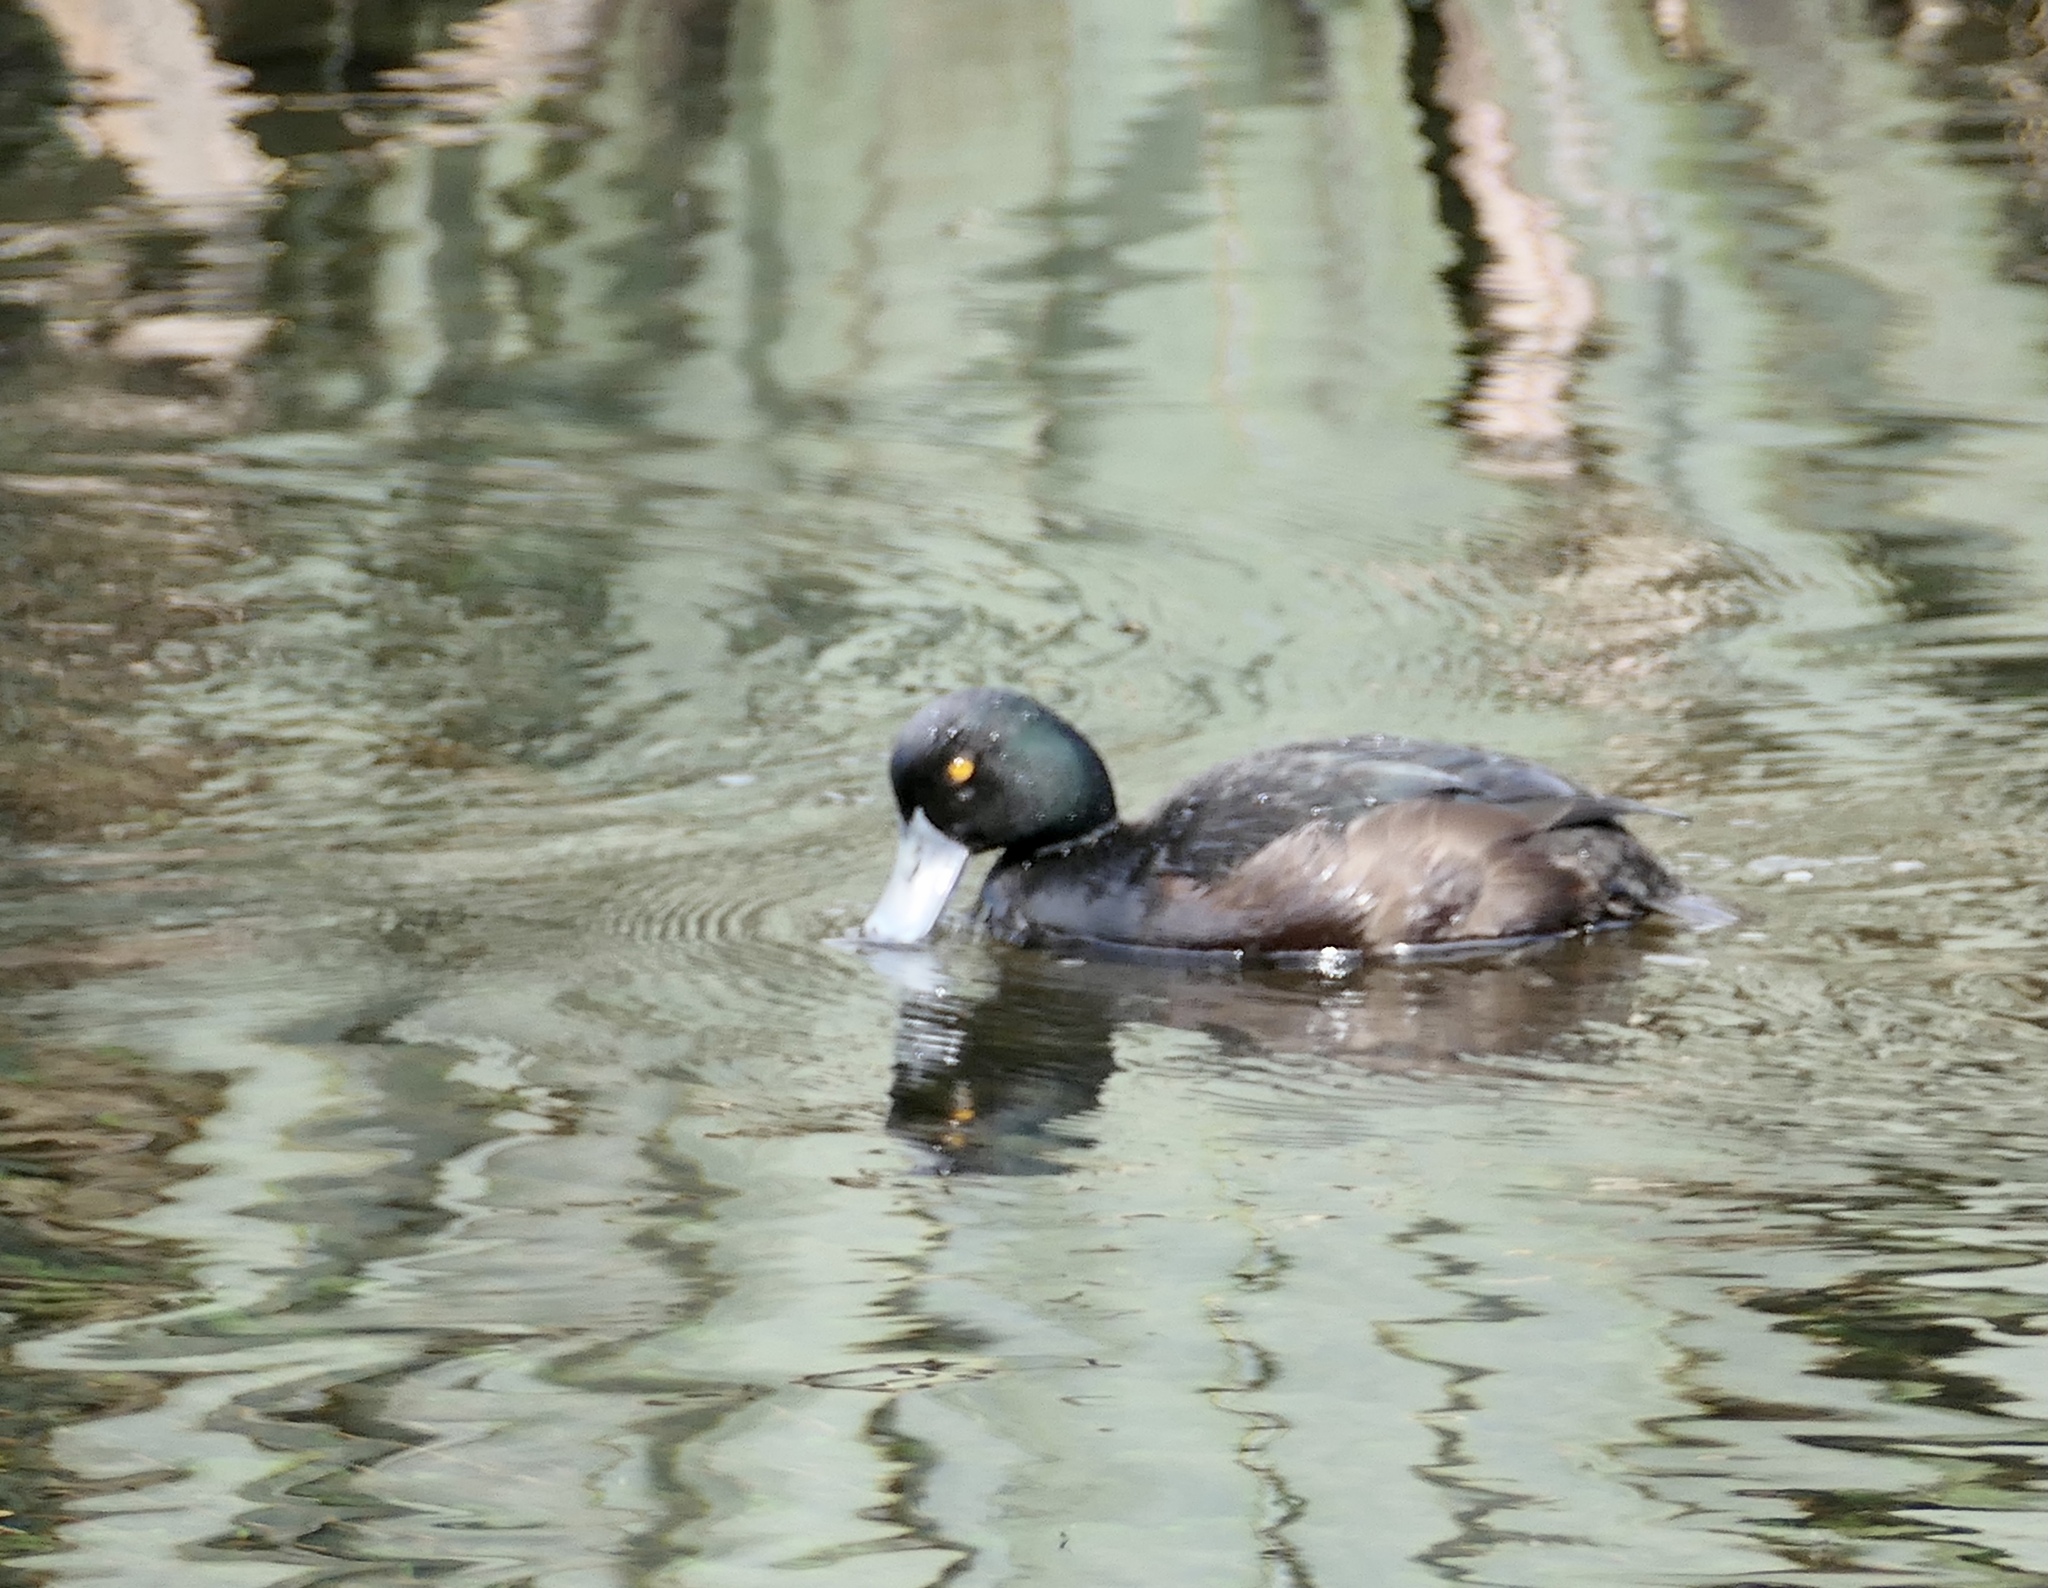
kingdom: Animalia
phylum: Chordata
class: Aves
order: Anseriformes
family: Anatidae
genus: Aythya
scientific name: Aythya novaeseelandiae
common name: New zealand scaup
